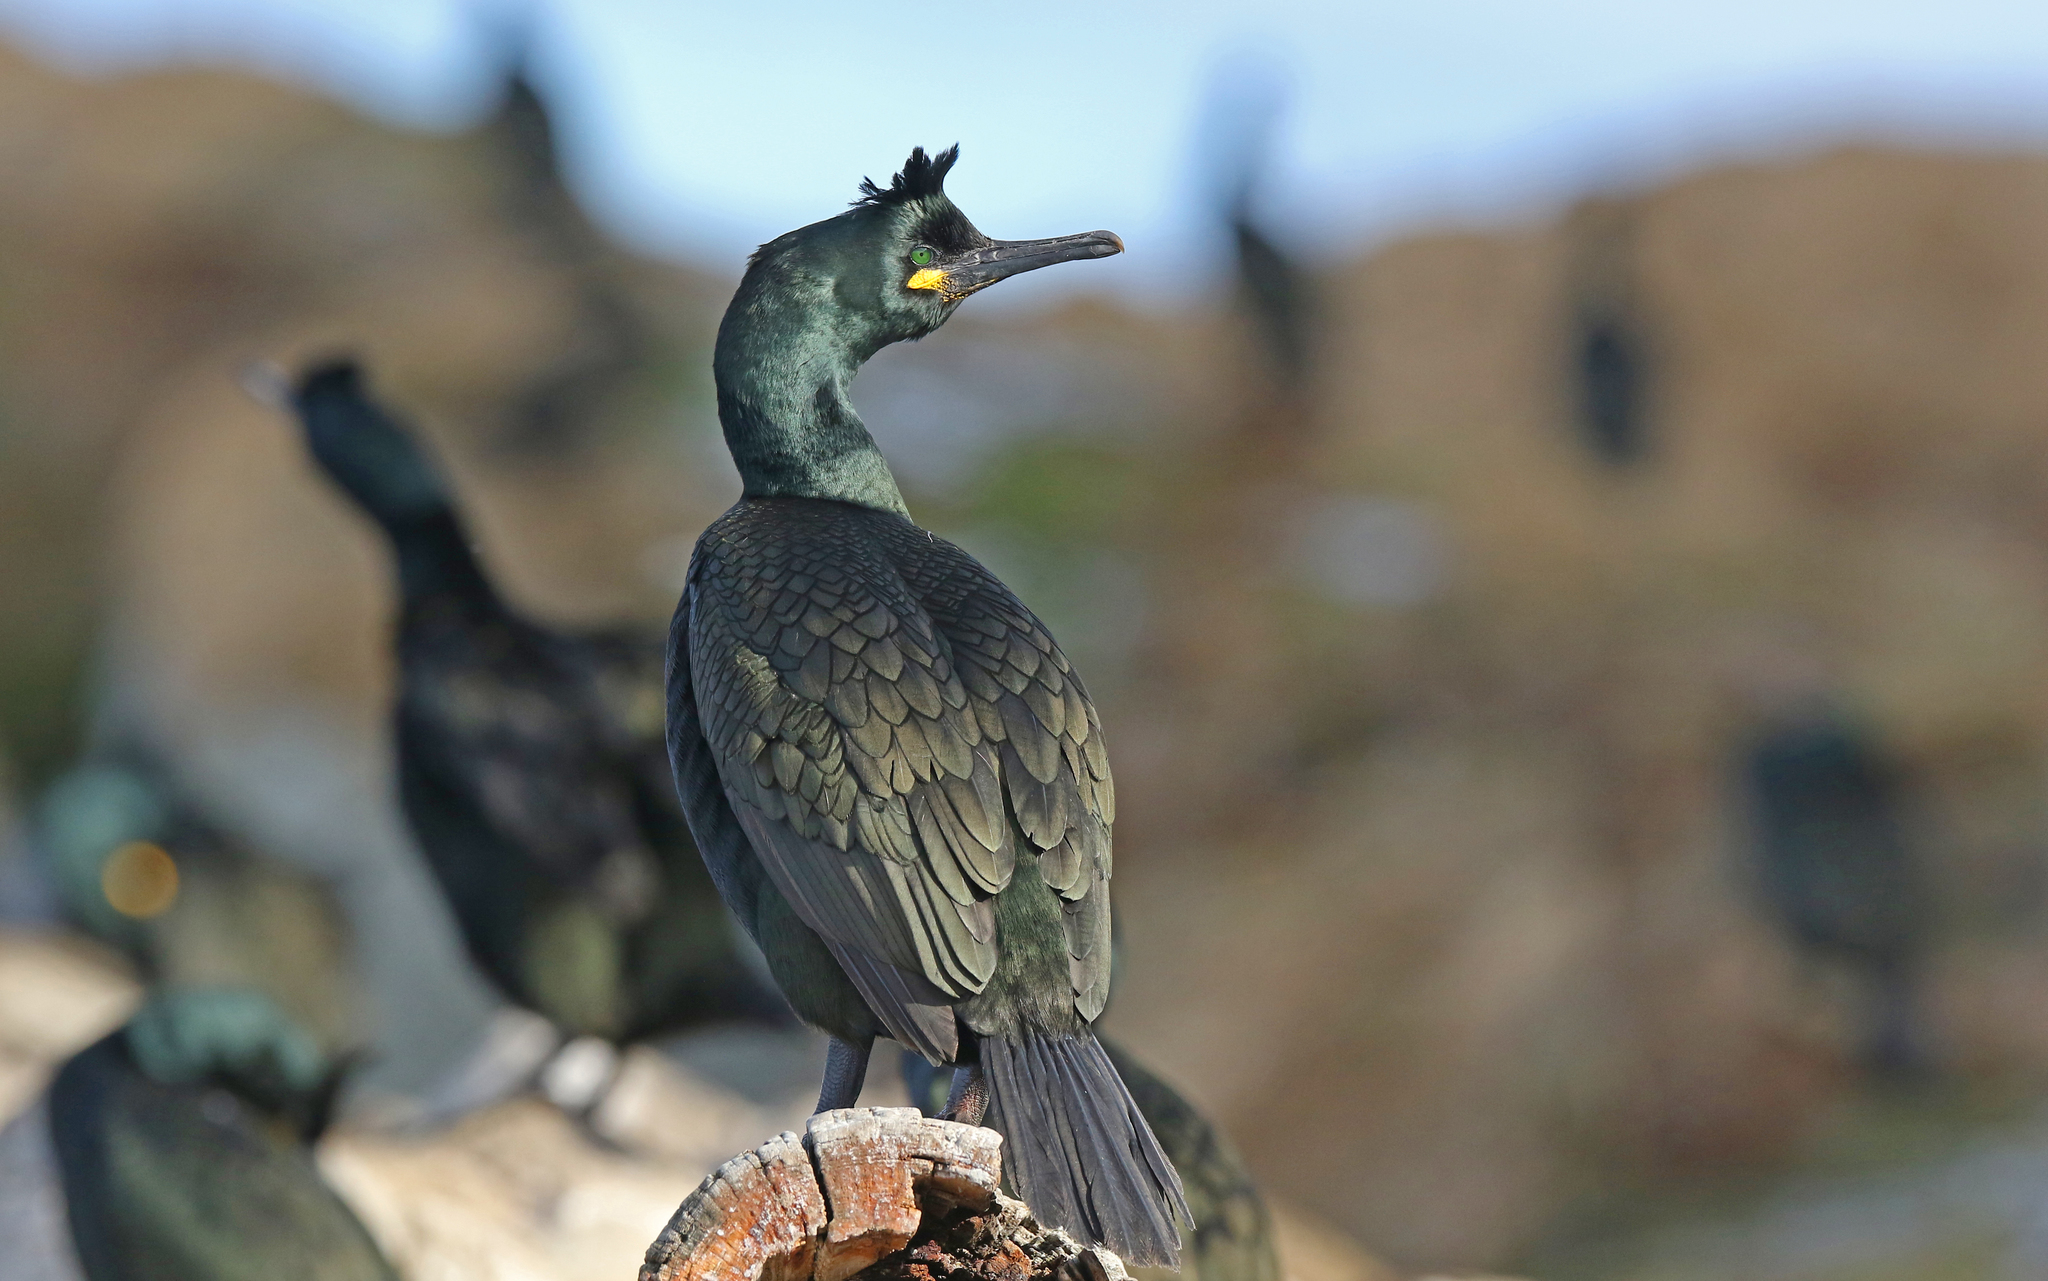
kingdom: Animalia
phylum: Chordata
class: Aves
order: Suliformes
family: Phalacrocoracidae
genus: Phalacrocorax
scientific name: Phalacrocorax aristotelis
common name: European shag
